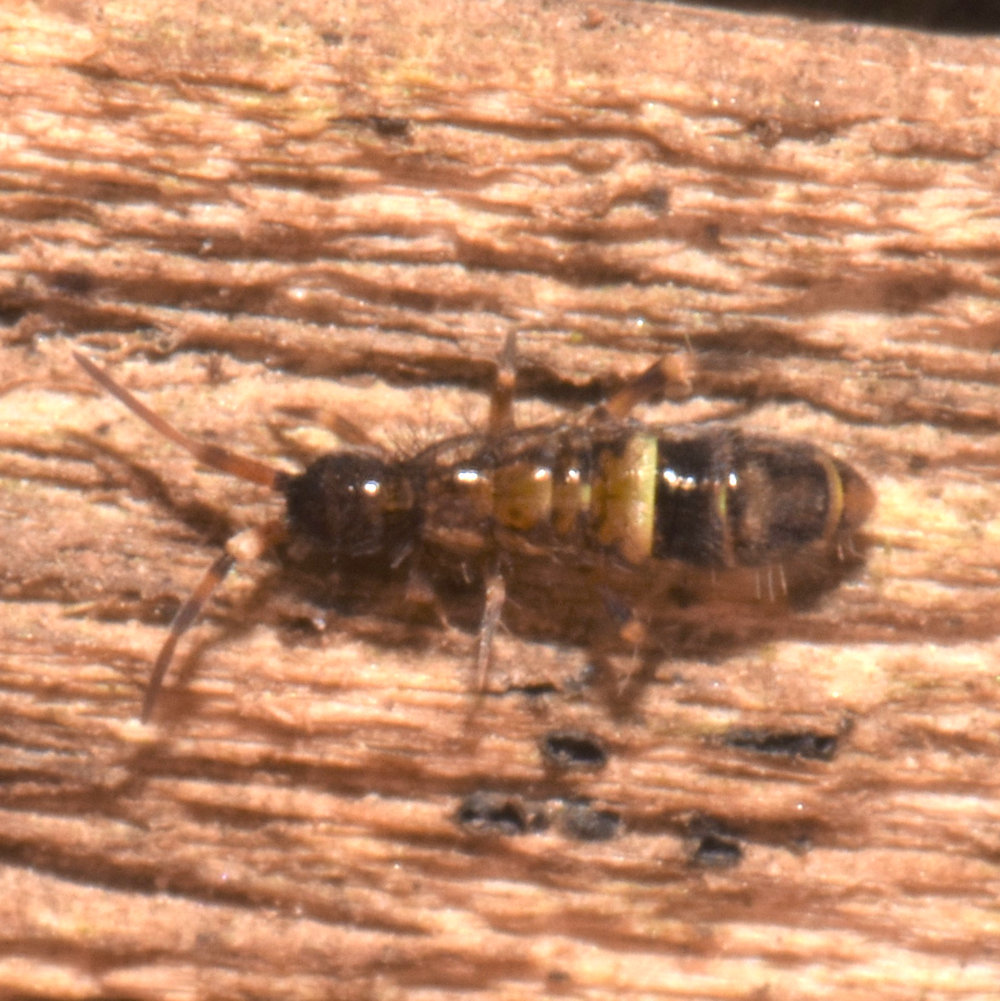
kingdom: Animalia
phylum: Arthropoda
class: Collembola
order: Entomobryomorpha
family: Orchesellidae
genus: Orchesella
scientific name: Orchesella cincta
